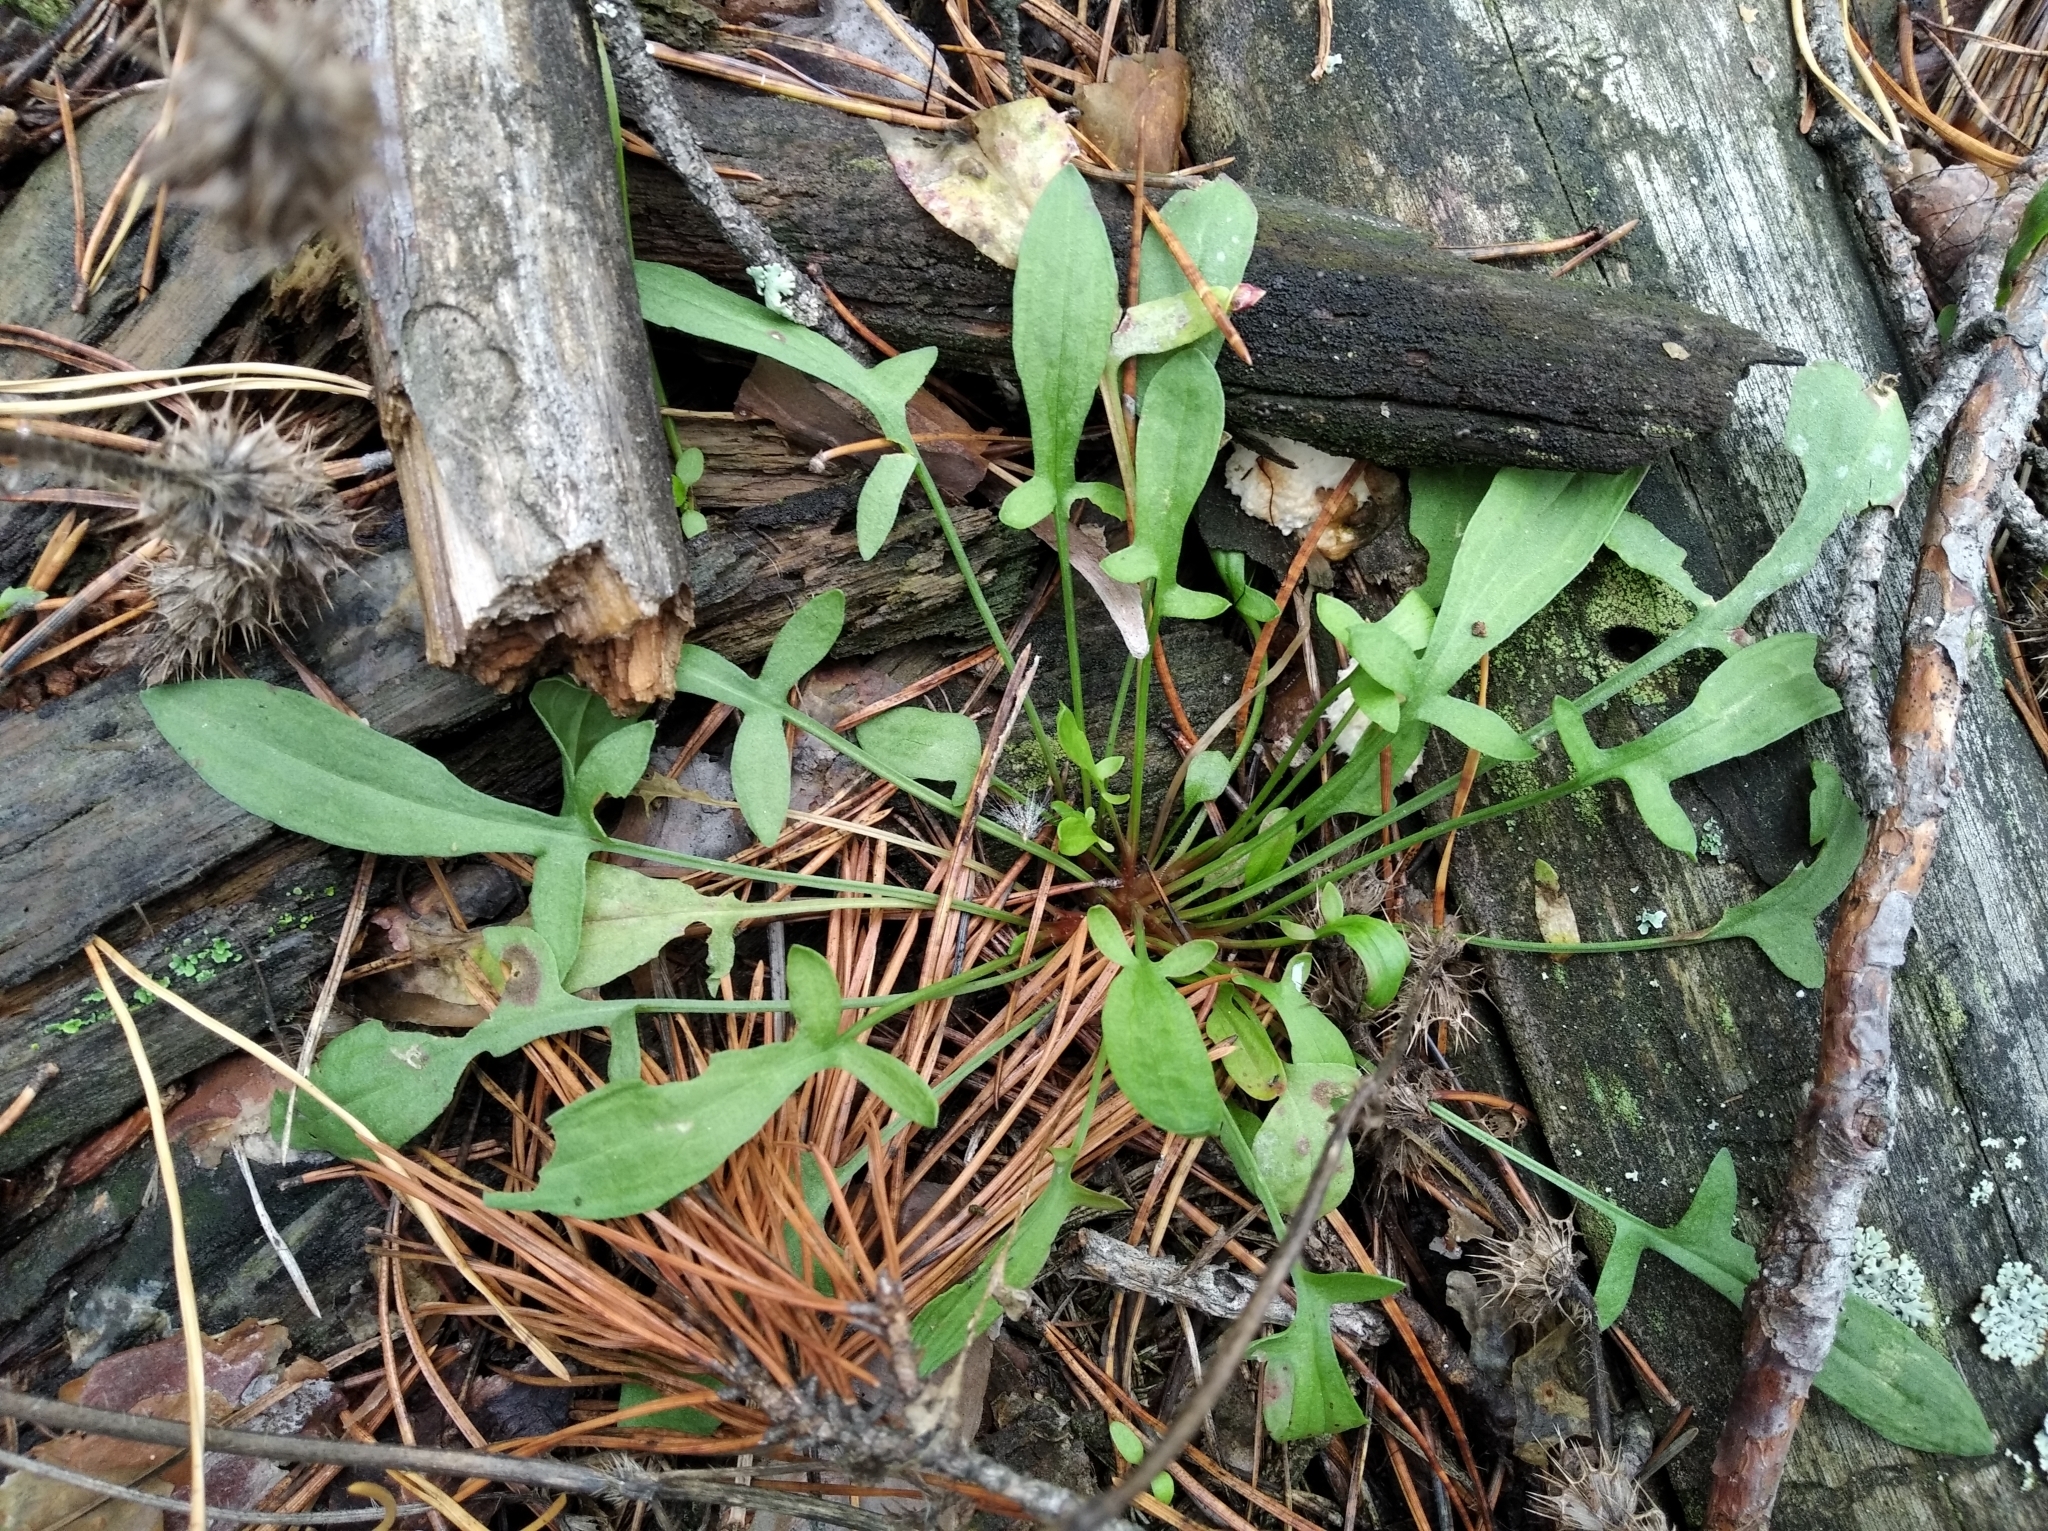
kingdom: Plantae
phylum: Tracheophyta
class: Magnoliopsida
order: Caryophyllales
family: Polygonaceae
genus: Rumex
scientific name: Rumex acetosella
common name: Common sheep sorrel
